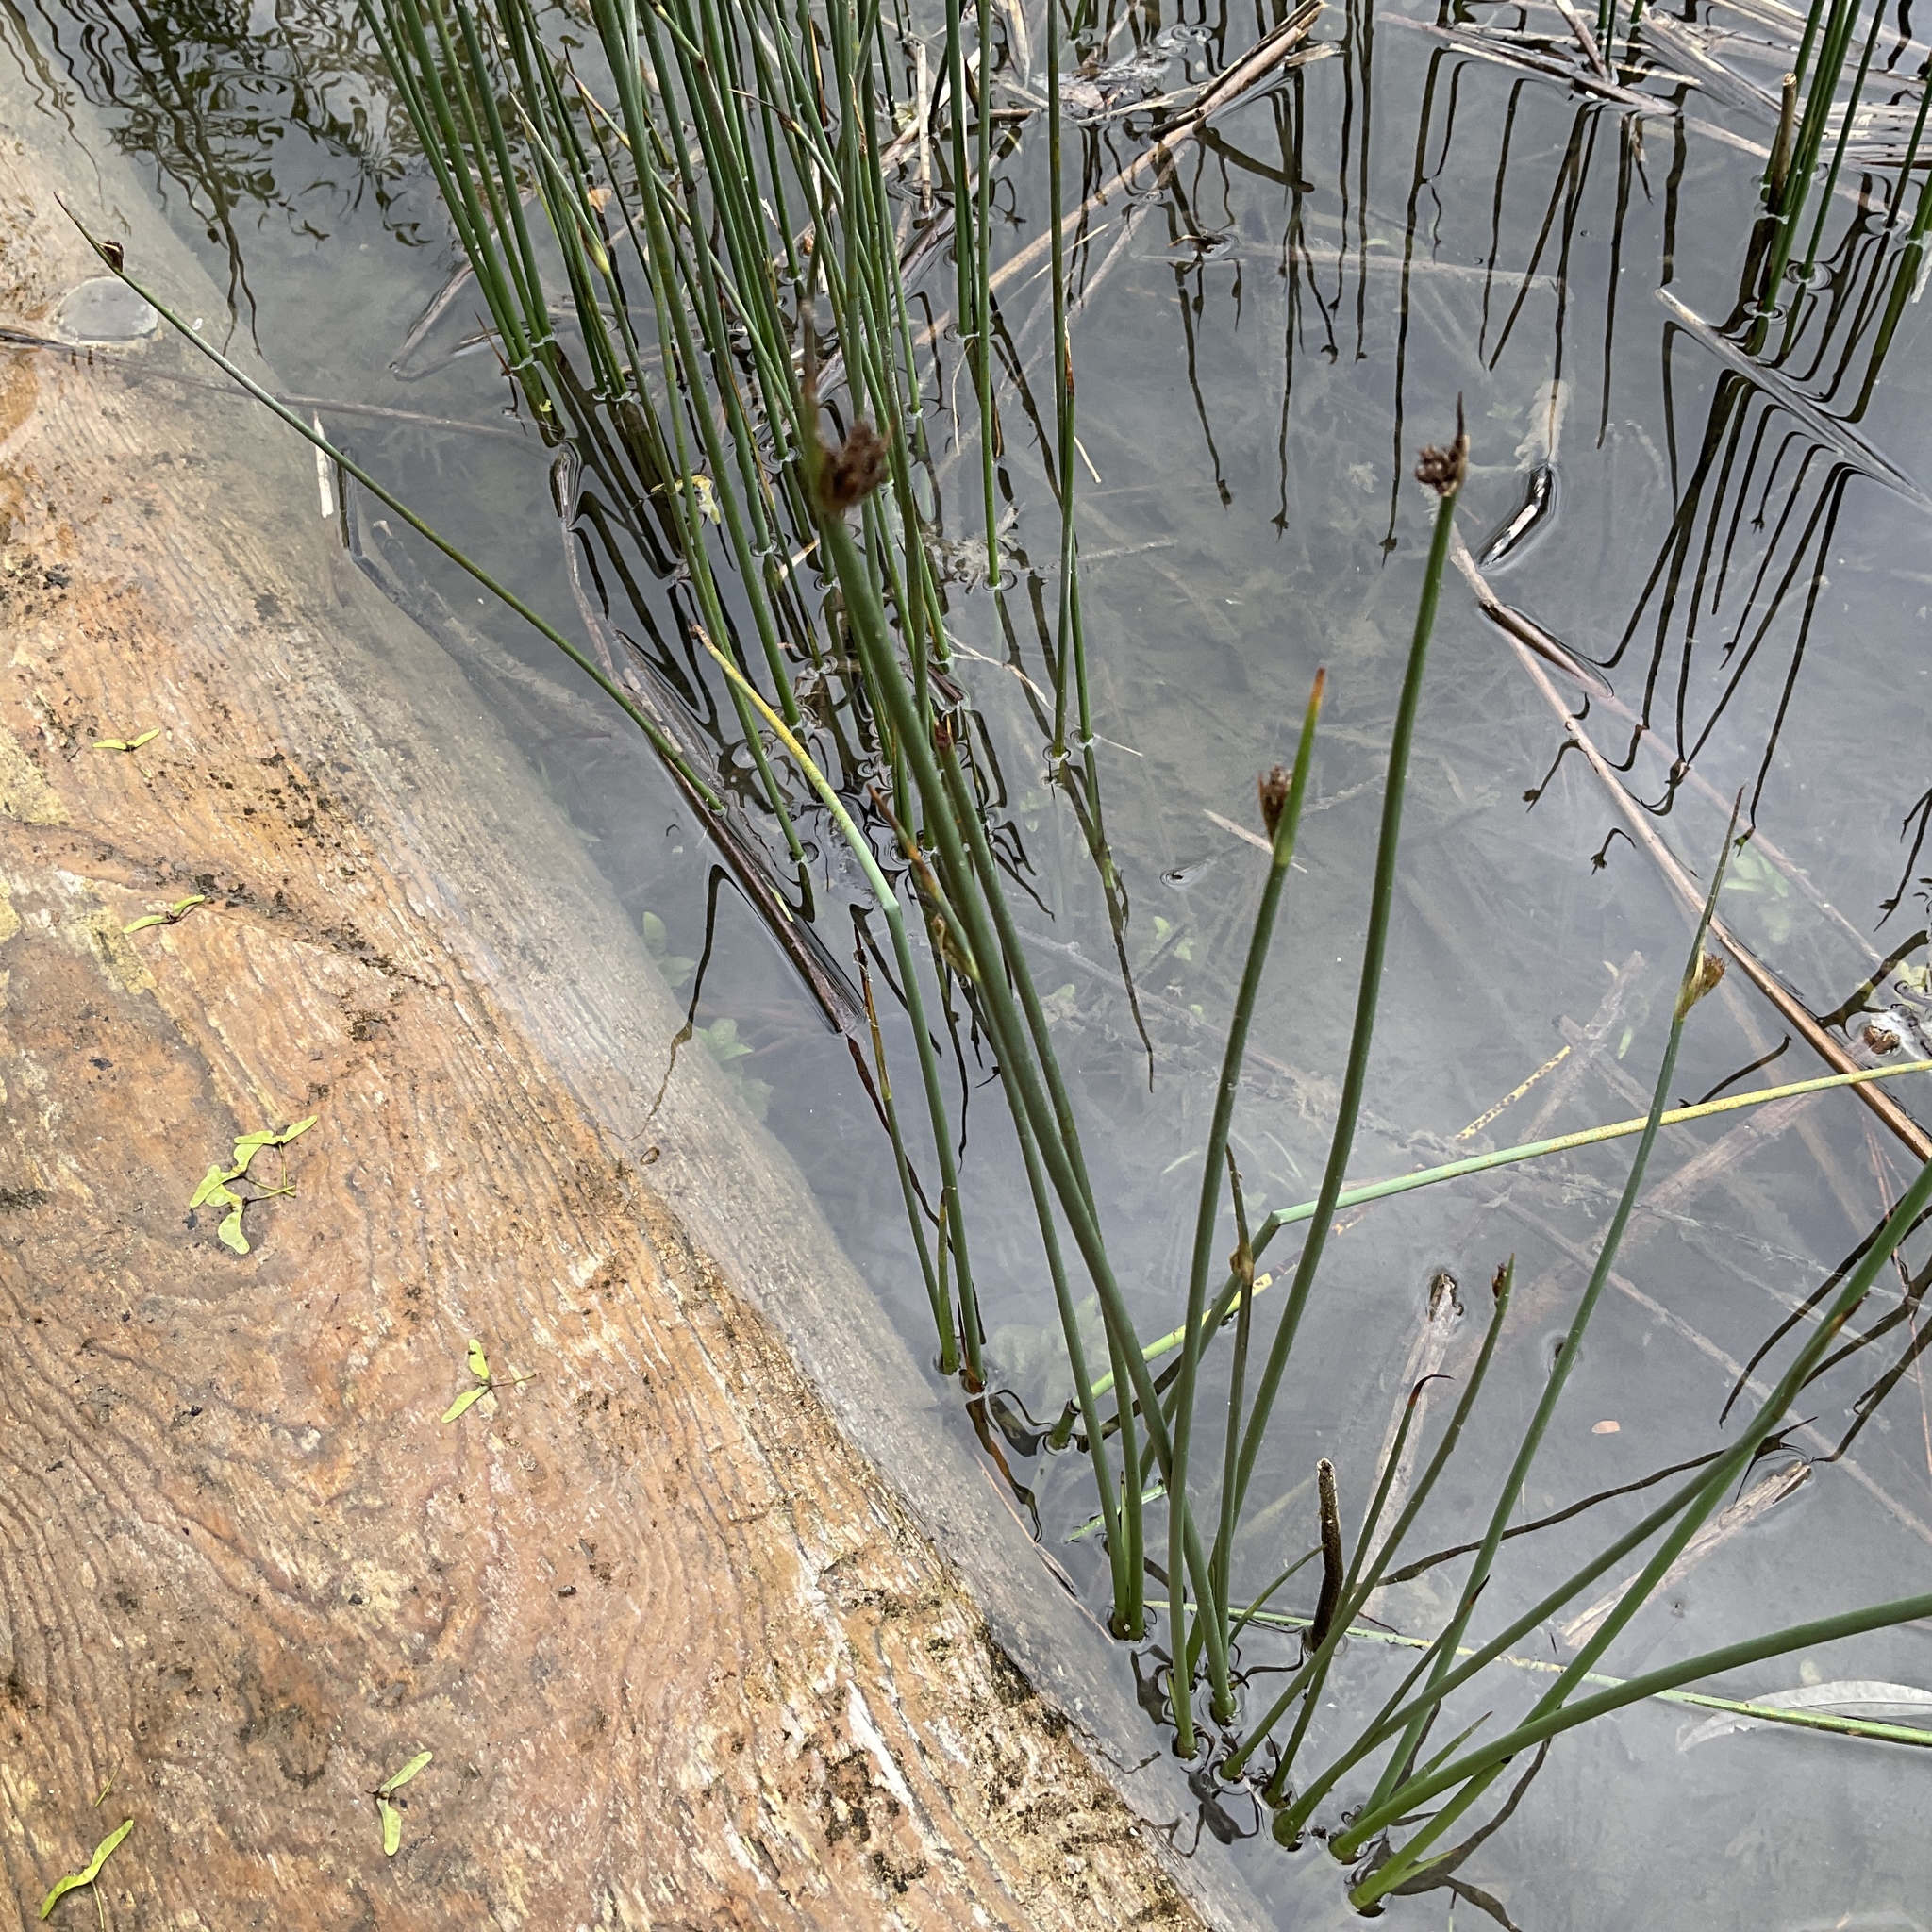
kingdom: Plantae
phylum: Tracheophyta
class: Liliopsida
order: Poales
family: Cyperaceae
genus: Schoenoplectus
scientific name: Schoenoplectus acutus
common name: Hardstem bulrush
